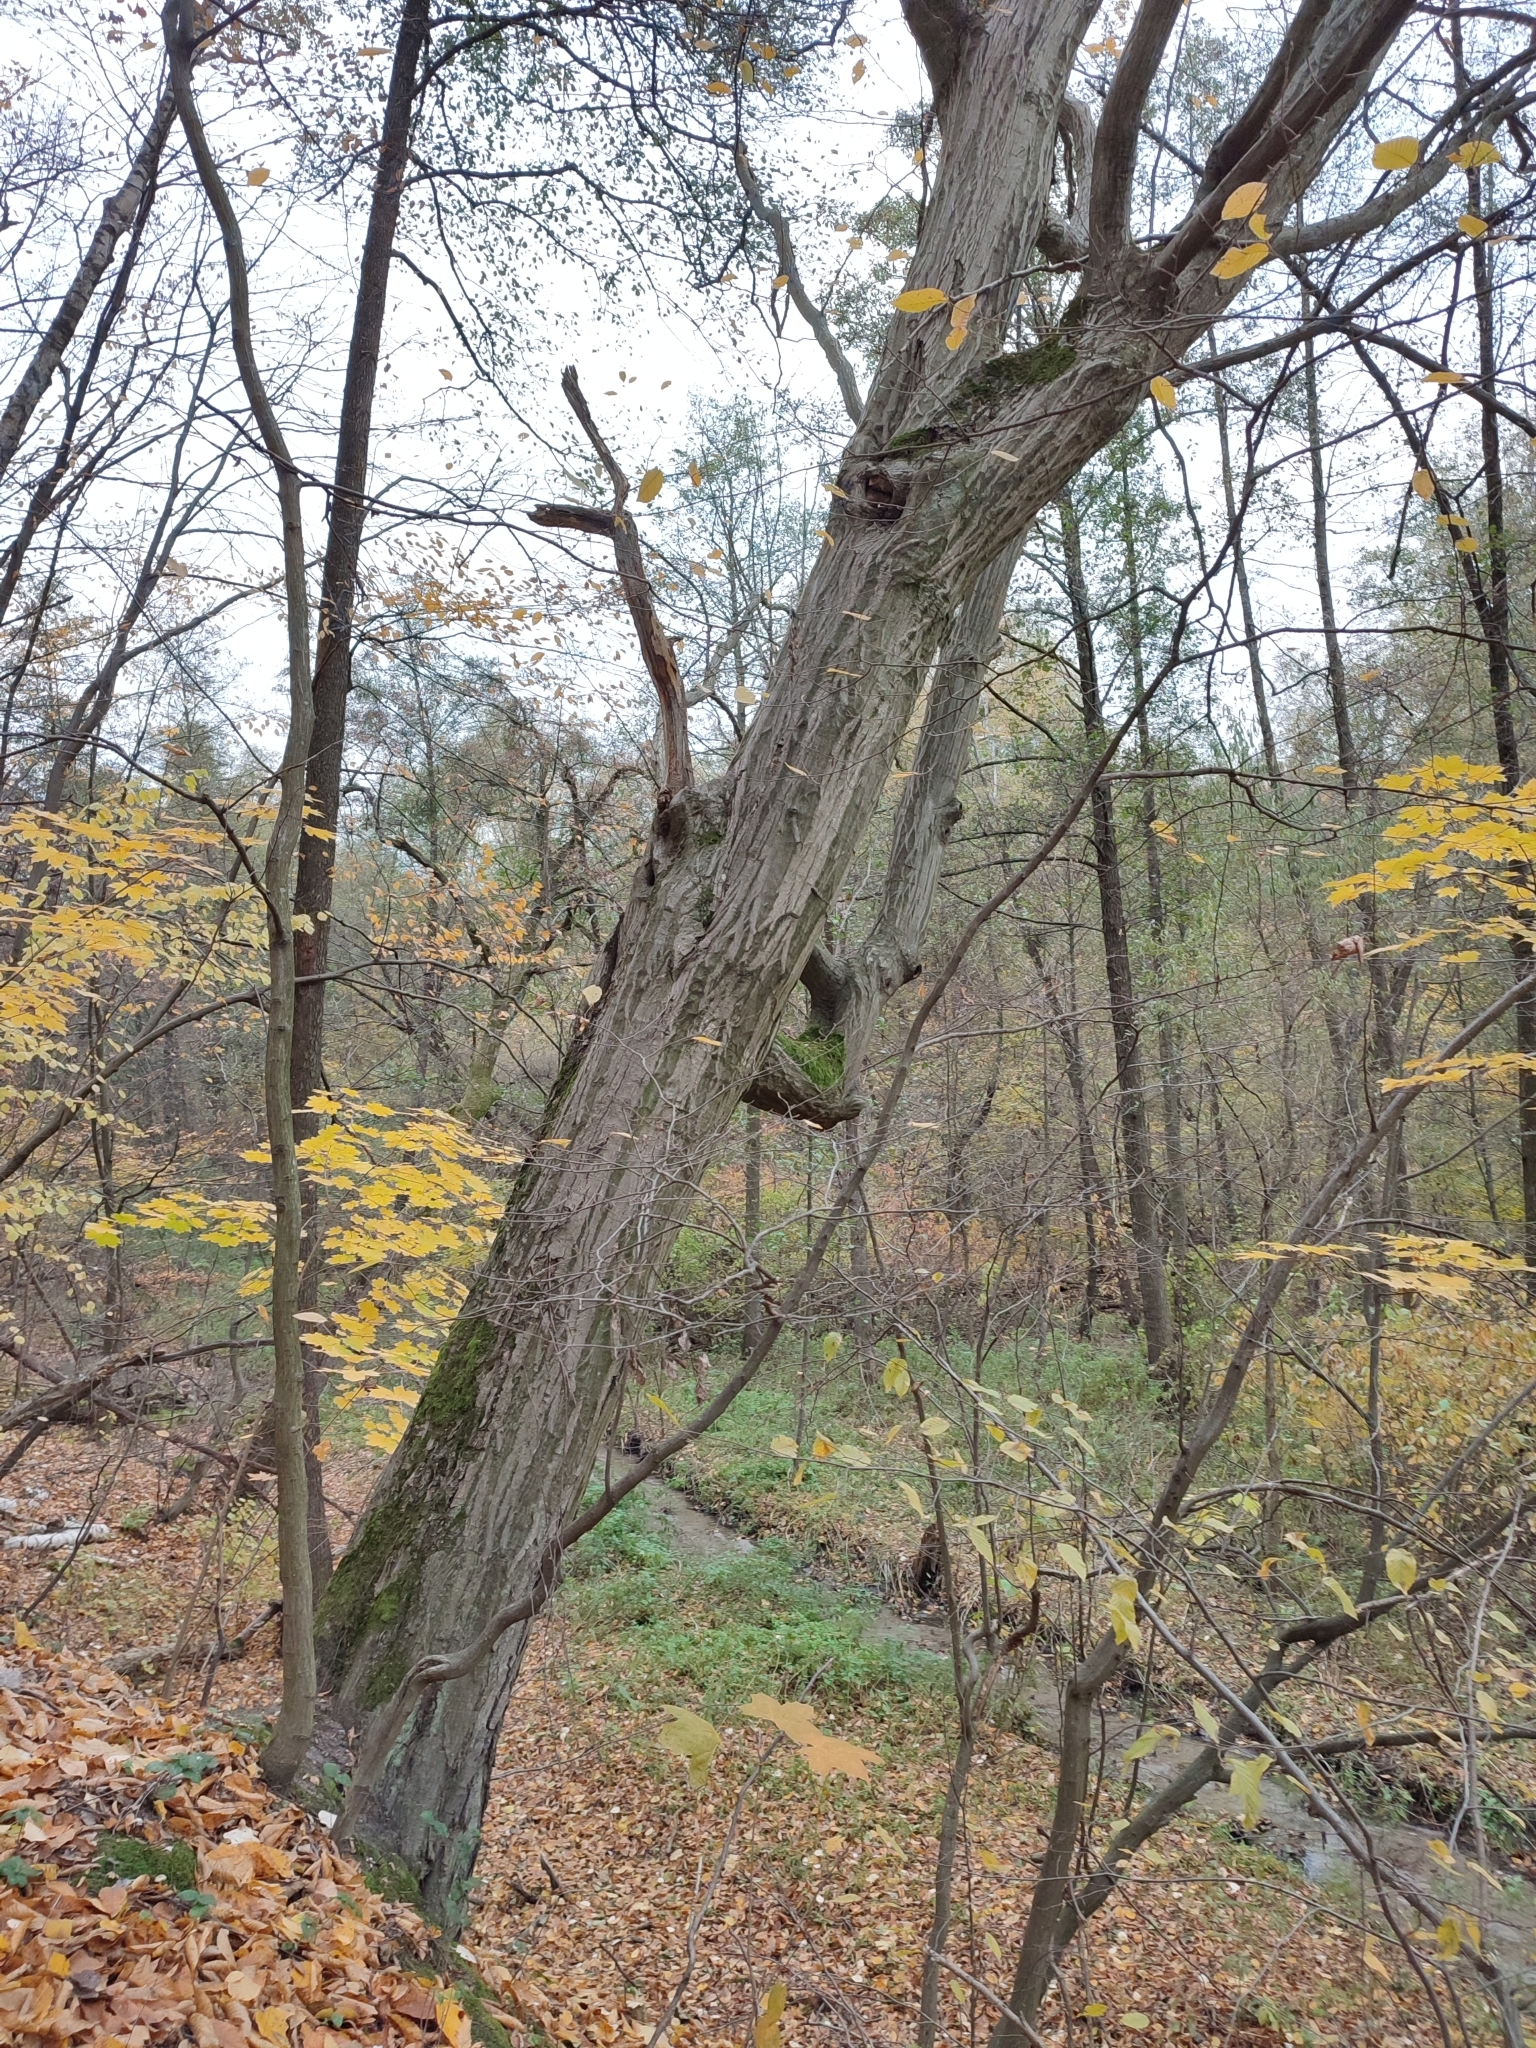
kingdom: Plantae
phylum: Tracheophyta
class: Magnoliopsida
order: Fagales
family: Betulaceae
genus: Carpinus
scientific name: Carpinus betulus
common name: Hornbeam
